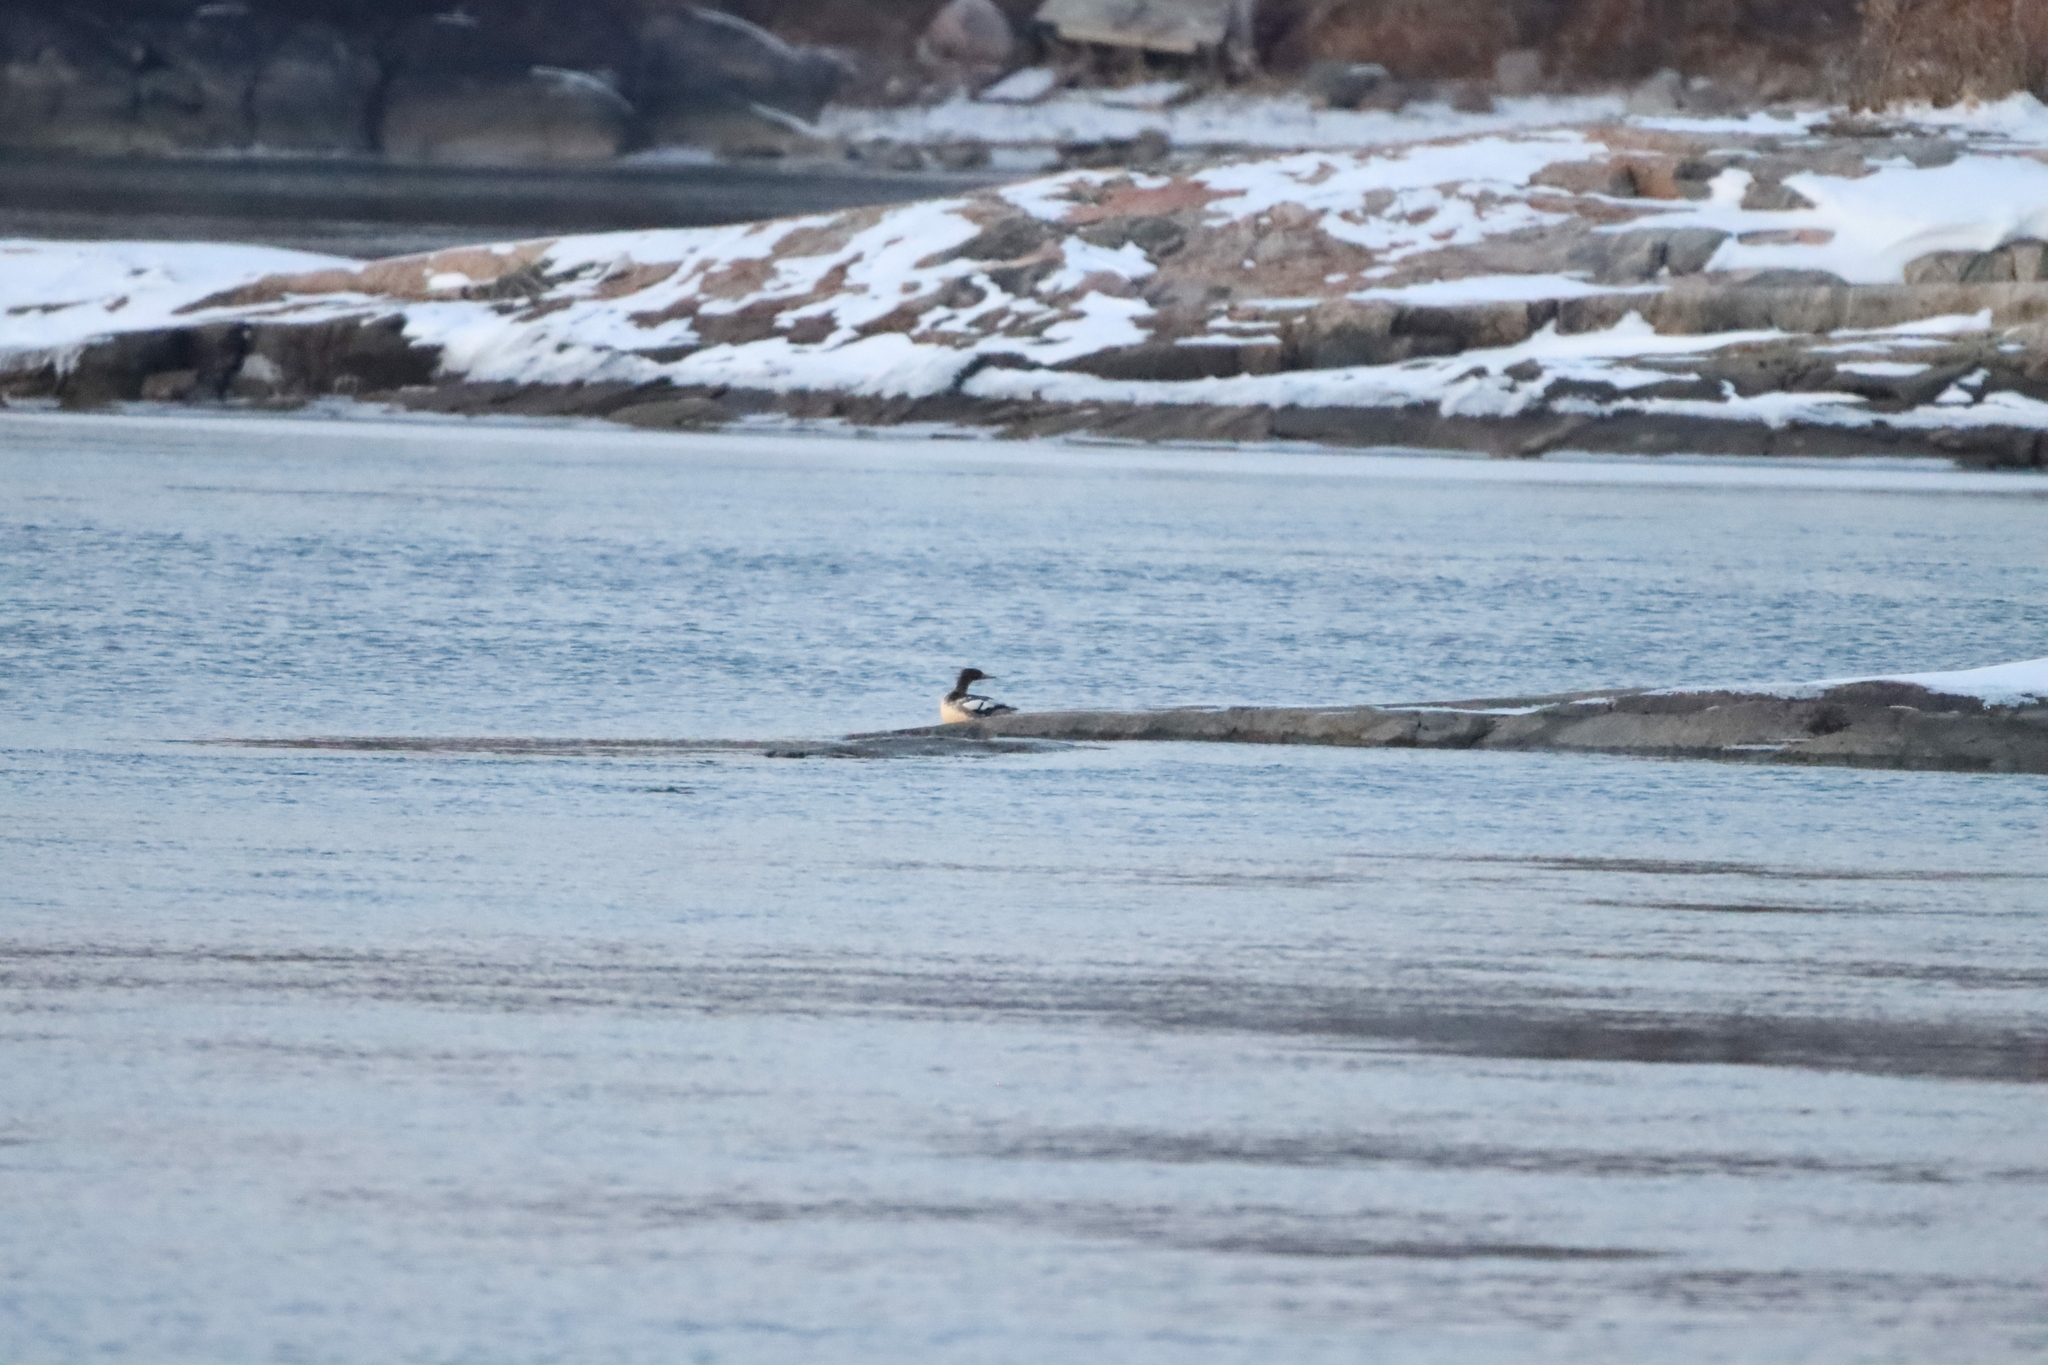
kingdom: Animalia
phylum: Chordata
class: Aves
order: Anseriformes
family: Anatidae
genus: Mergus
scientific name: Mergus merganser
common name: Common merganser
